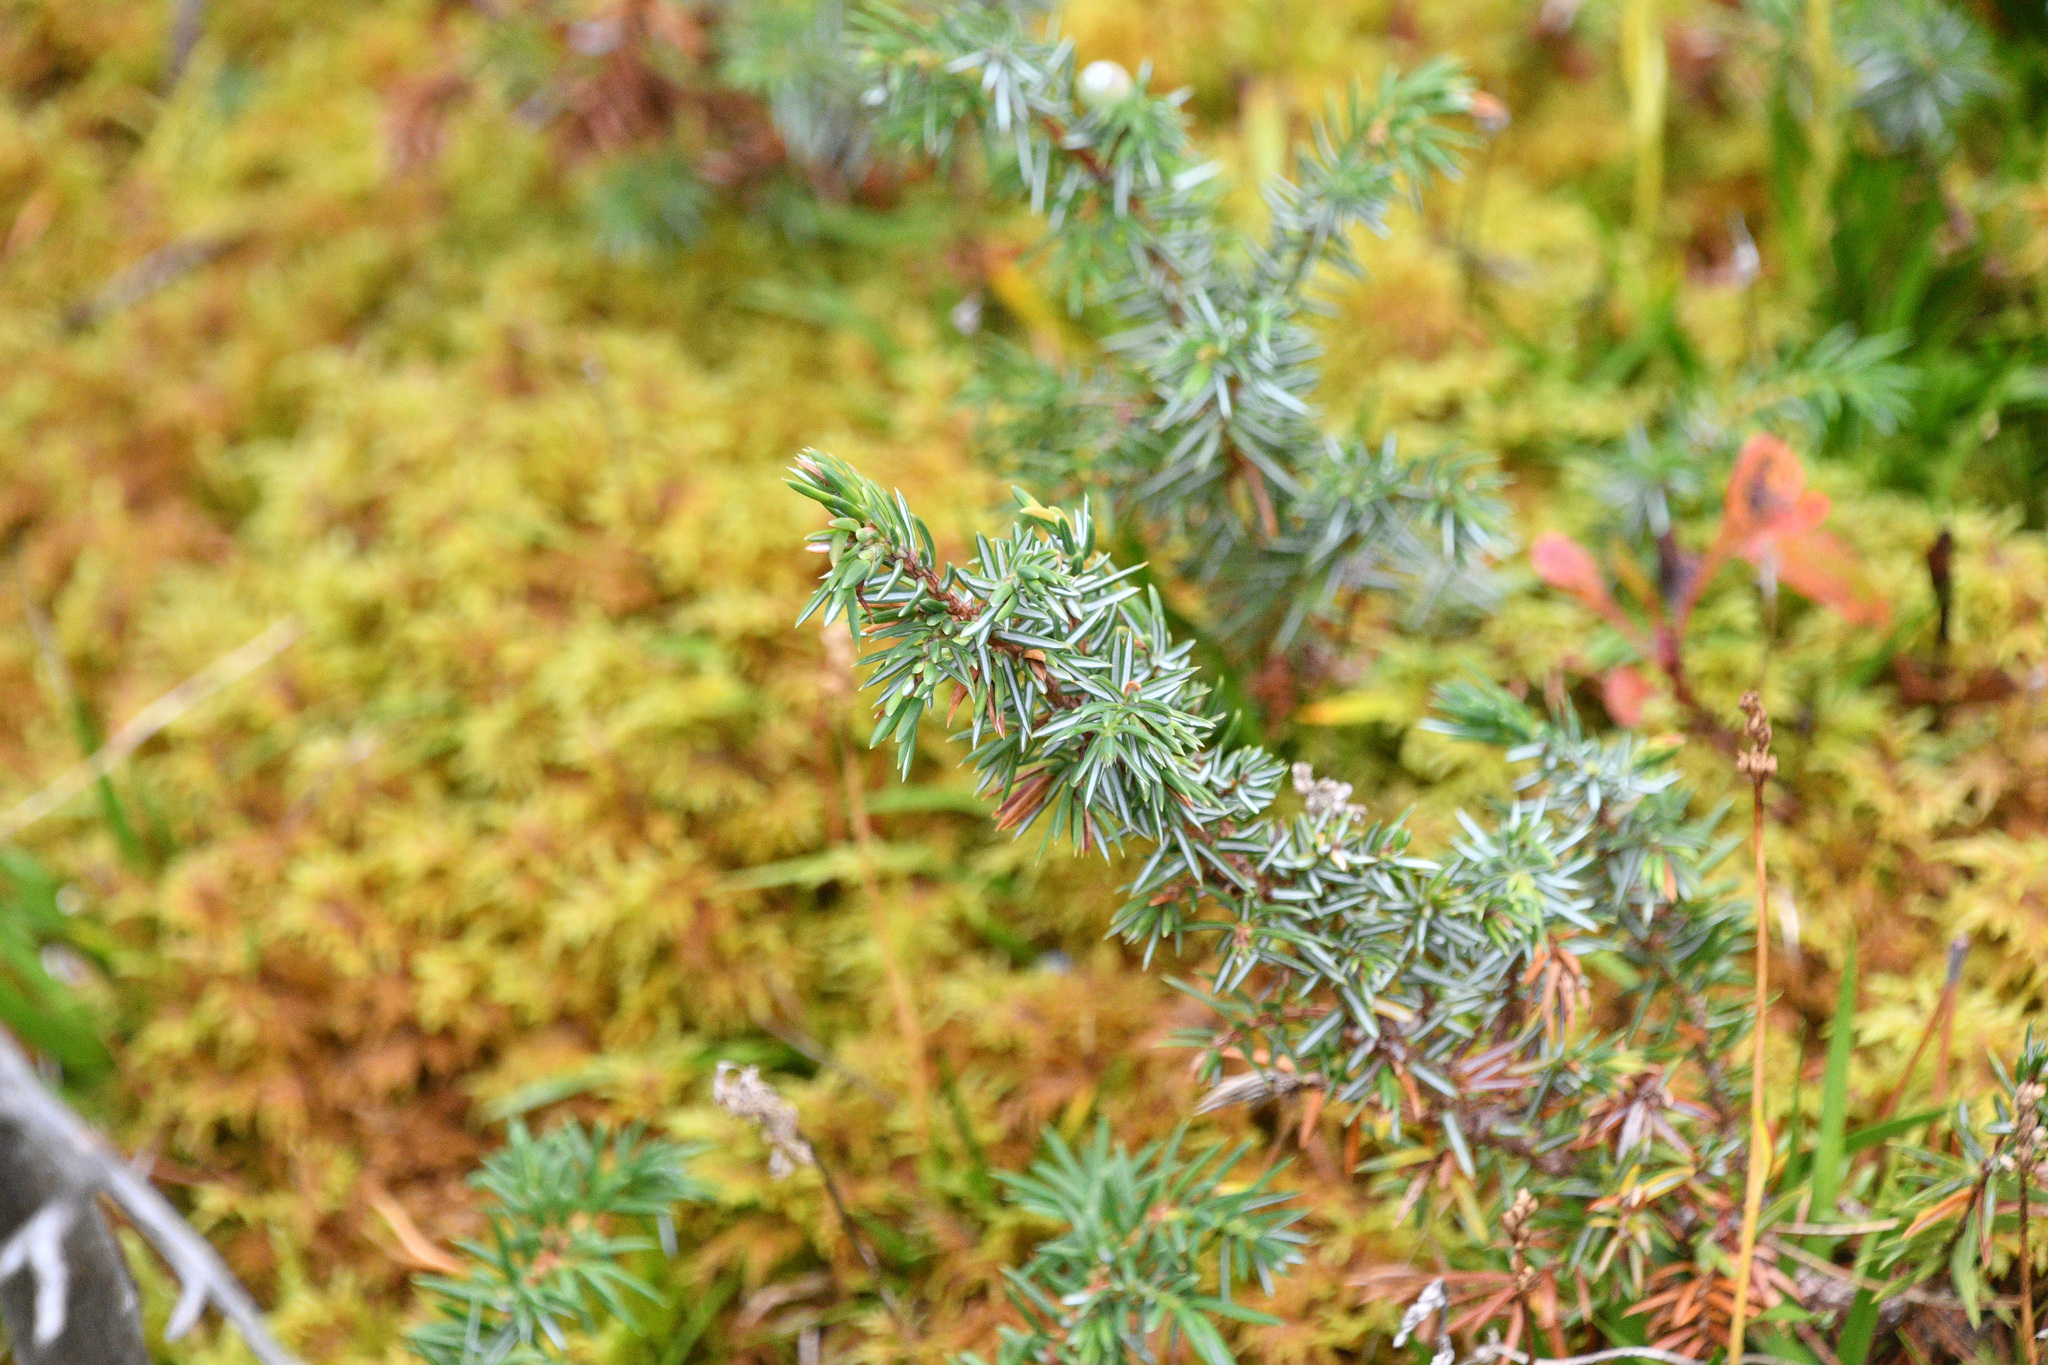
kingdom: Plantae
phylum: Tracheophyta
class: Pinopsida
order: Pinales
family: Cupressaceae
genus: Juniperus
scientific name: Juniperus communis
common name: Common juniper
